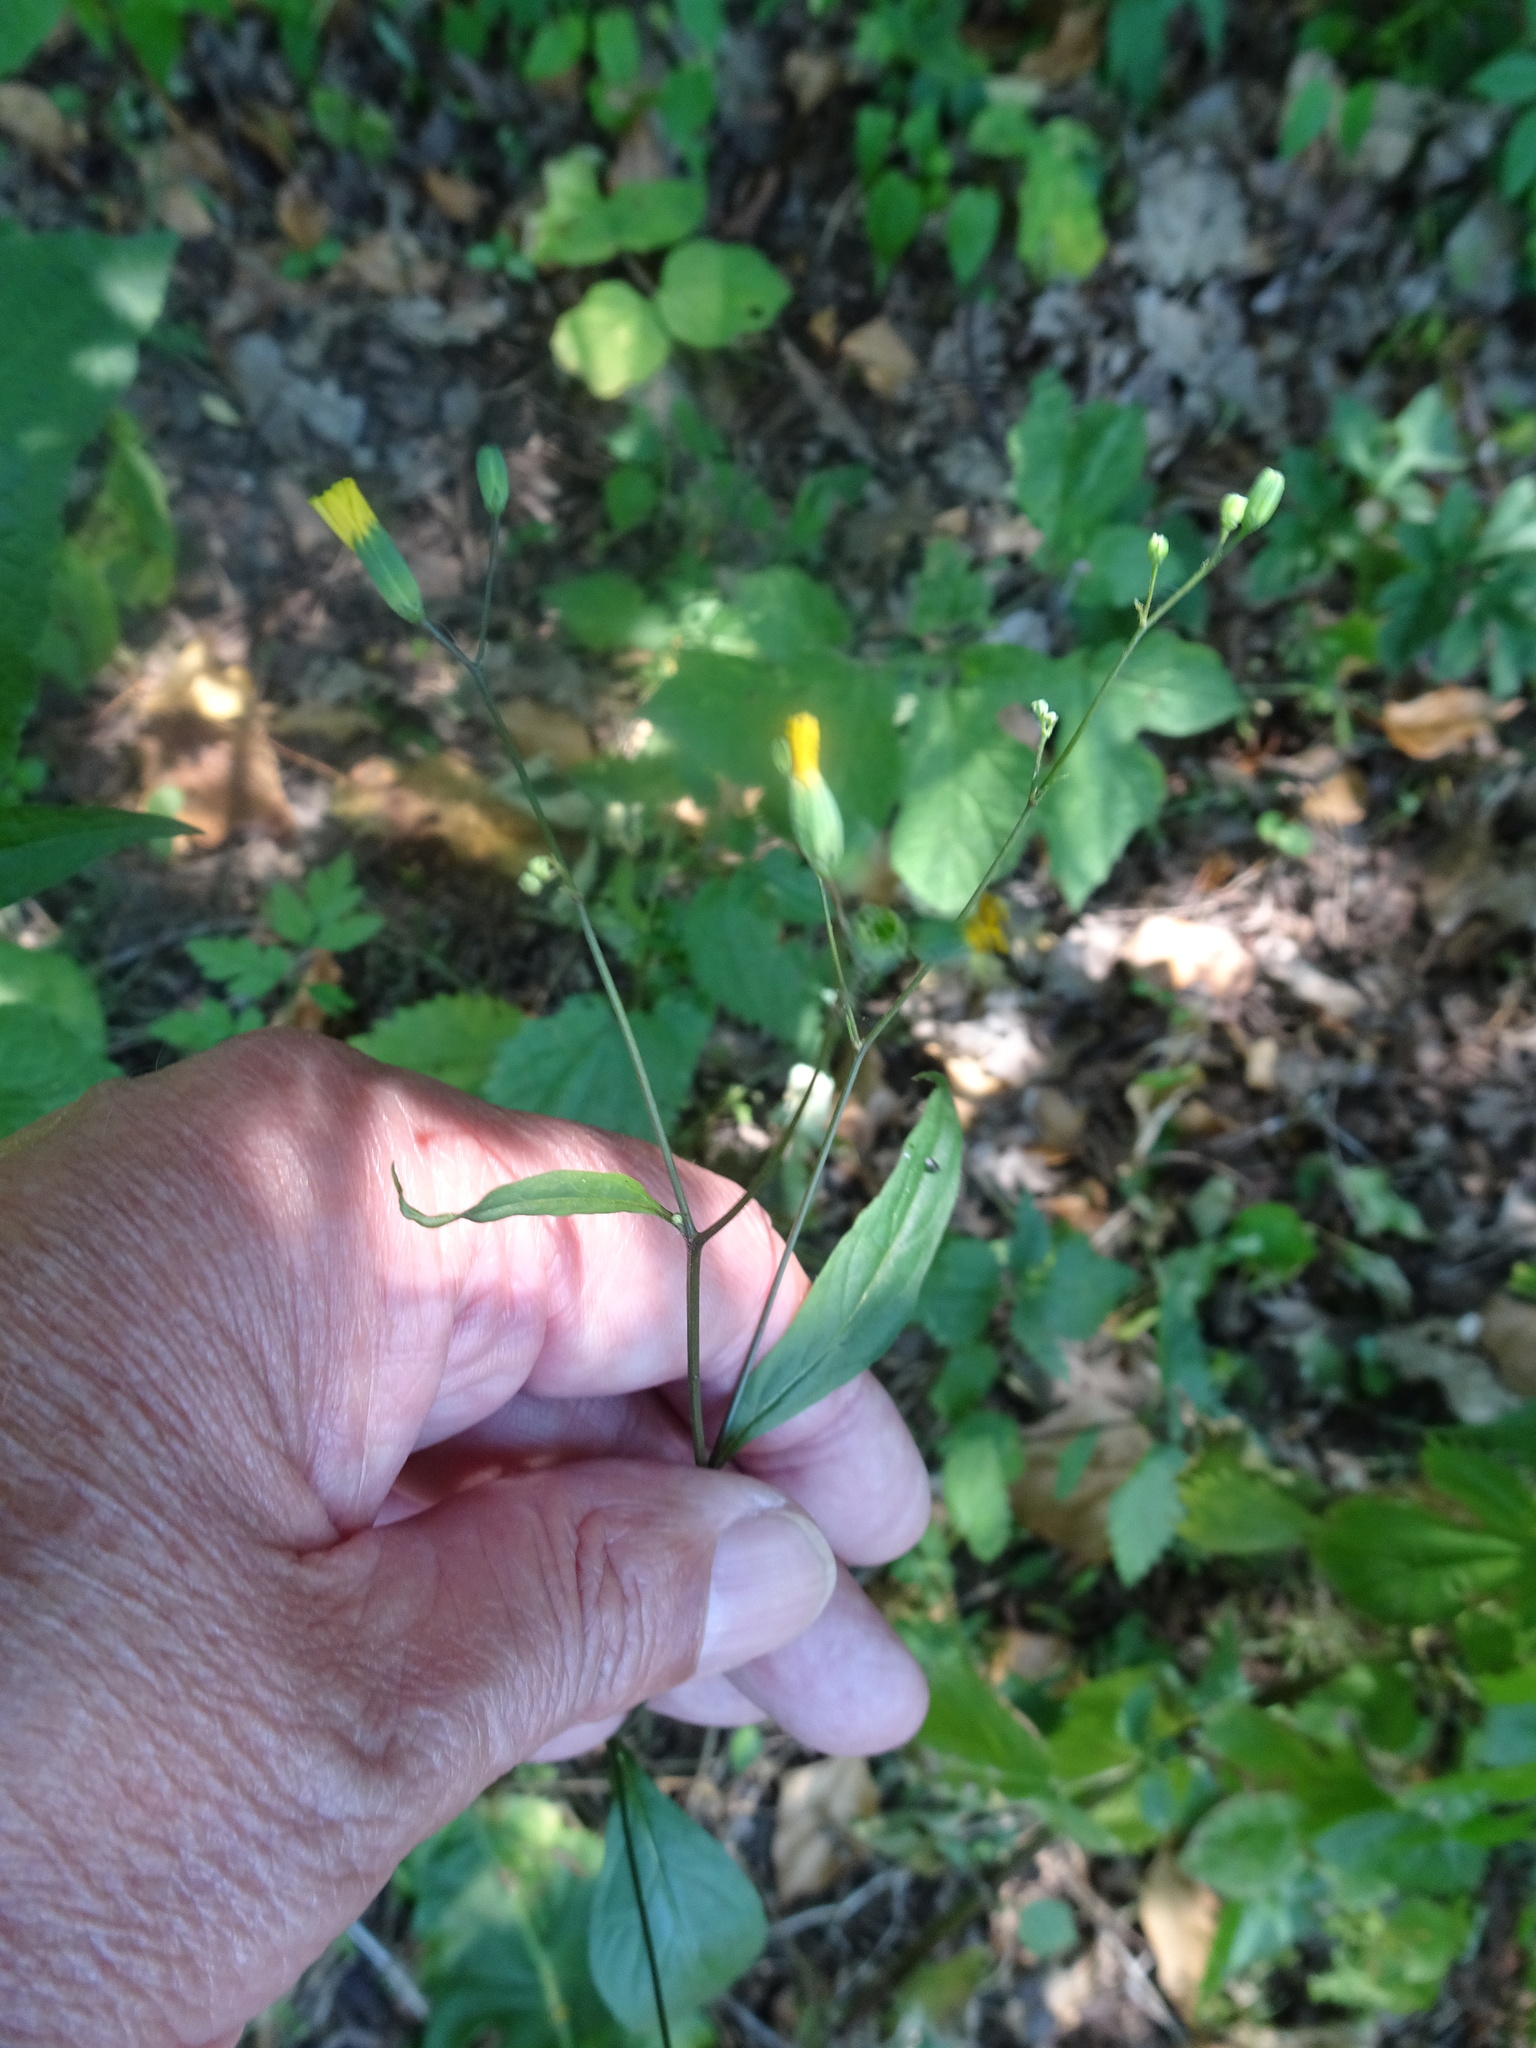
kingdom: Plantae
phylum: Tracheophyta
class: Magnoliopsida
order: Asterales
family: Asteraceae
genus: Lapsana
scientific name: Lapsana communis
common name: Nipplewort
